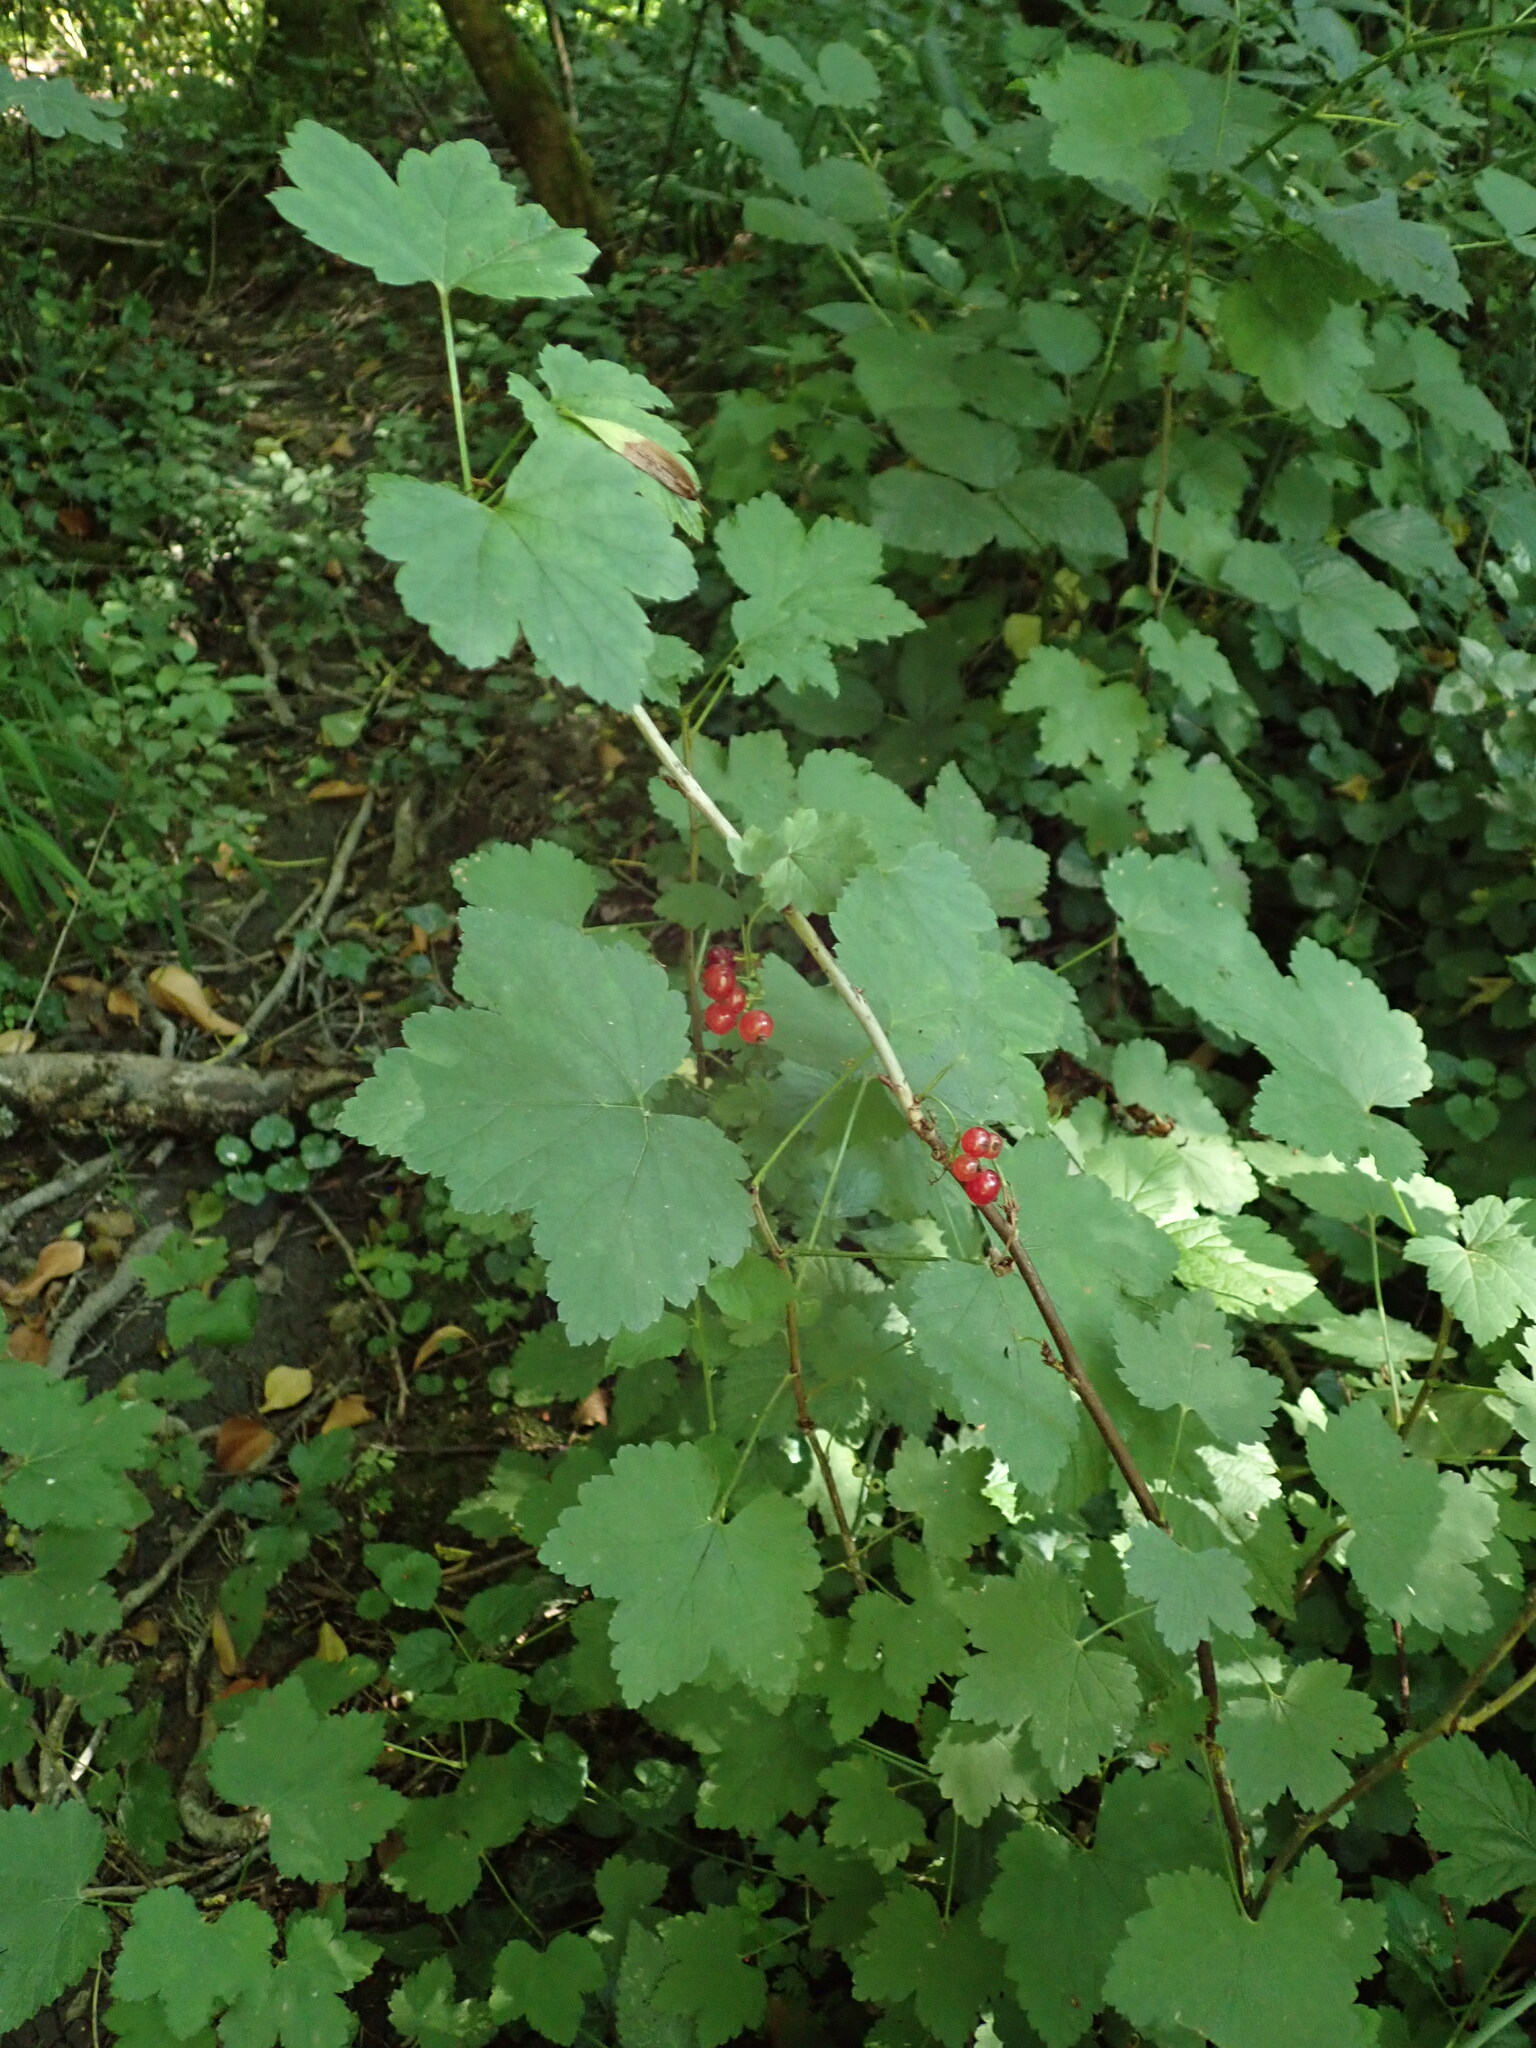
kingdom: Plantae
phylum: Tracheophyta
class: Magnoliopsida
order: Saxifragales
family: Grossulariaceae
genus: Ribes
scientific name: Ribes rubrum
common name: Red currant
